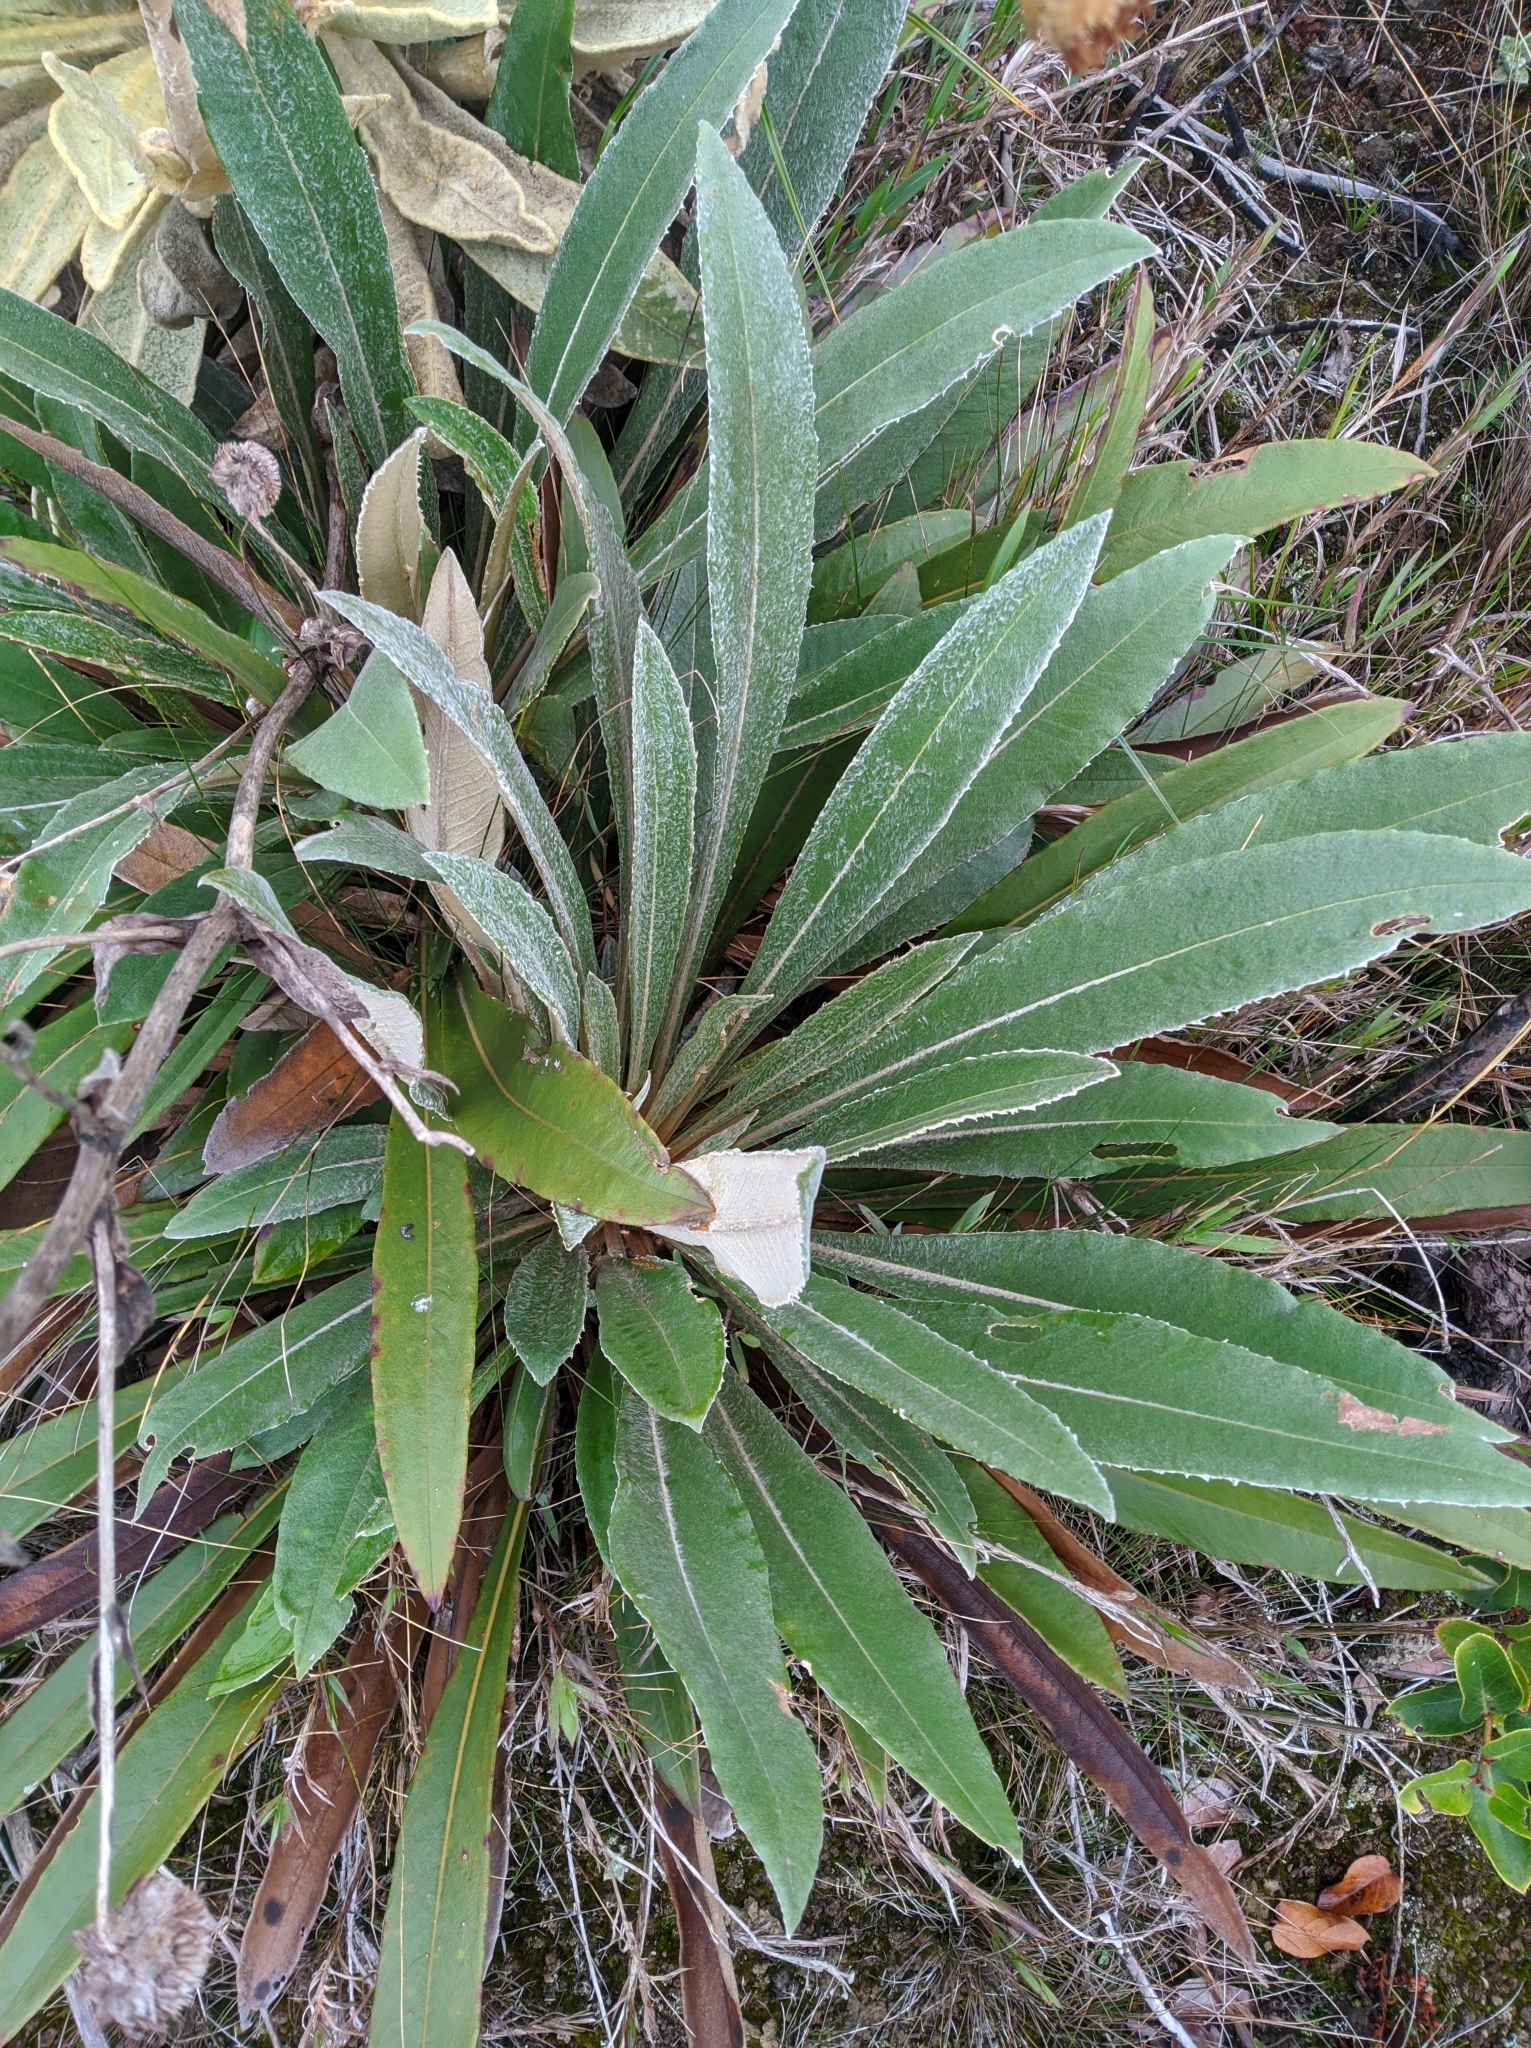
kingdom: Plantae
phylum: Tracheophyta
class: Magnoliopsida
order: Asterales
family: Asteraceae
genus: Espeletia
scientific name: Espeletia bracteosa
